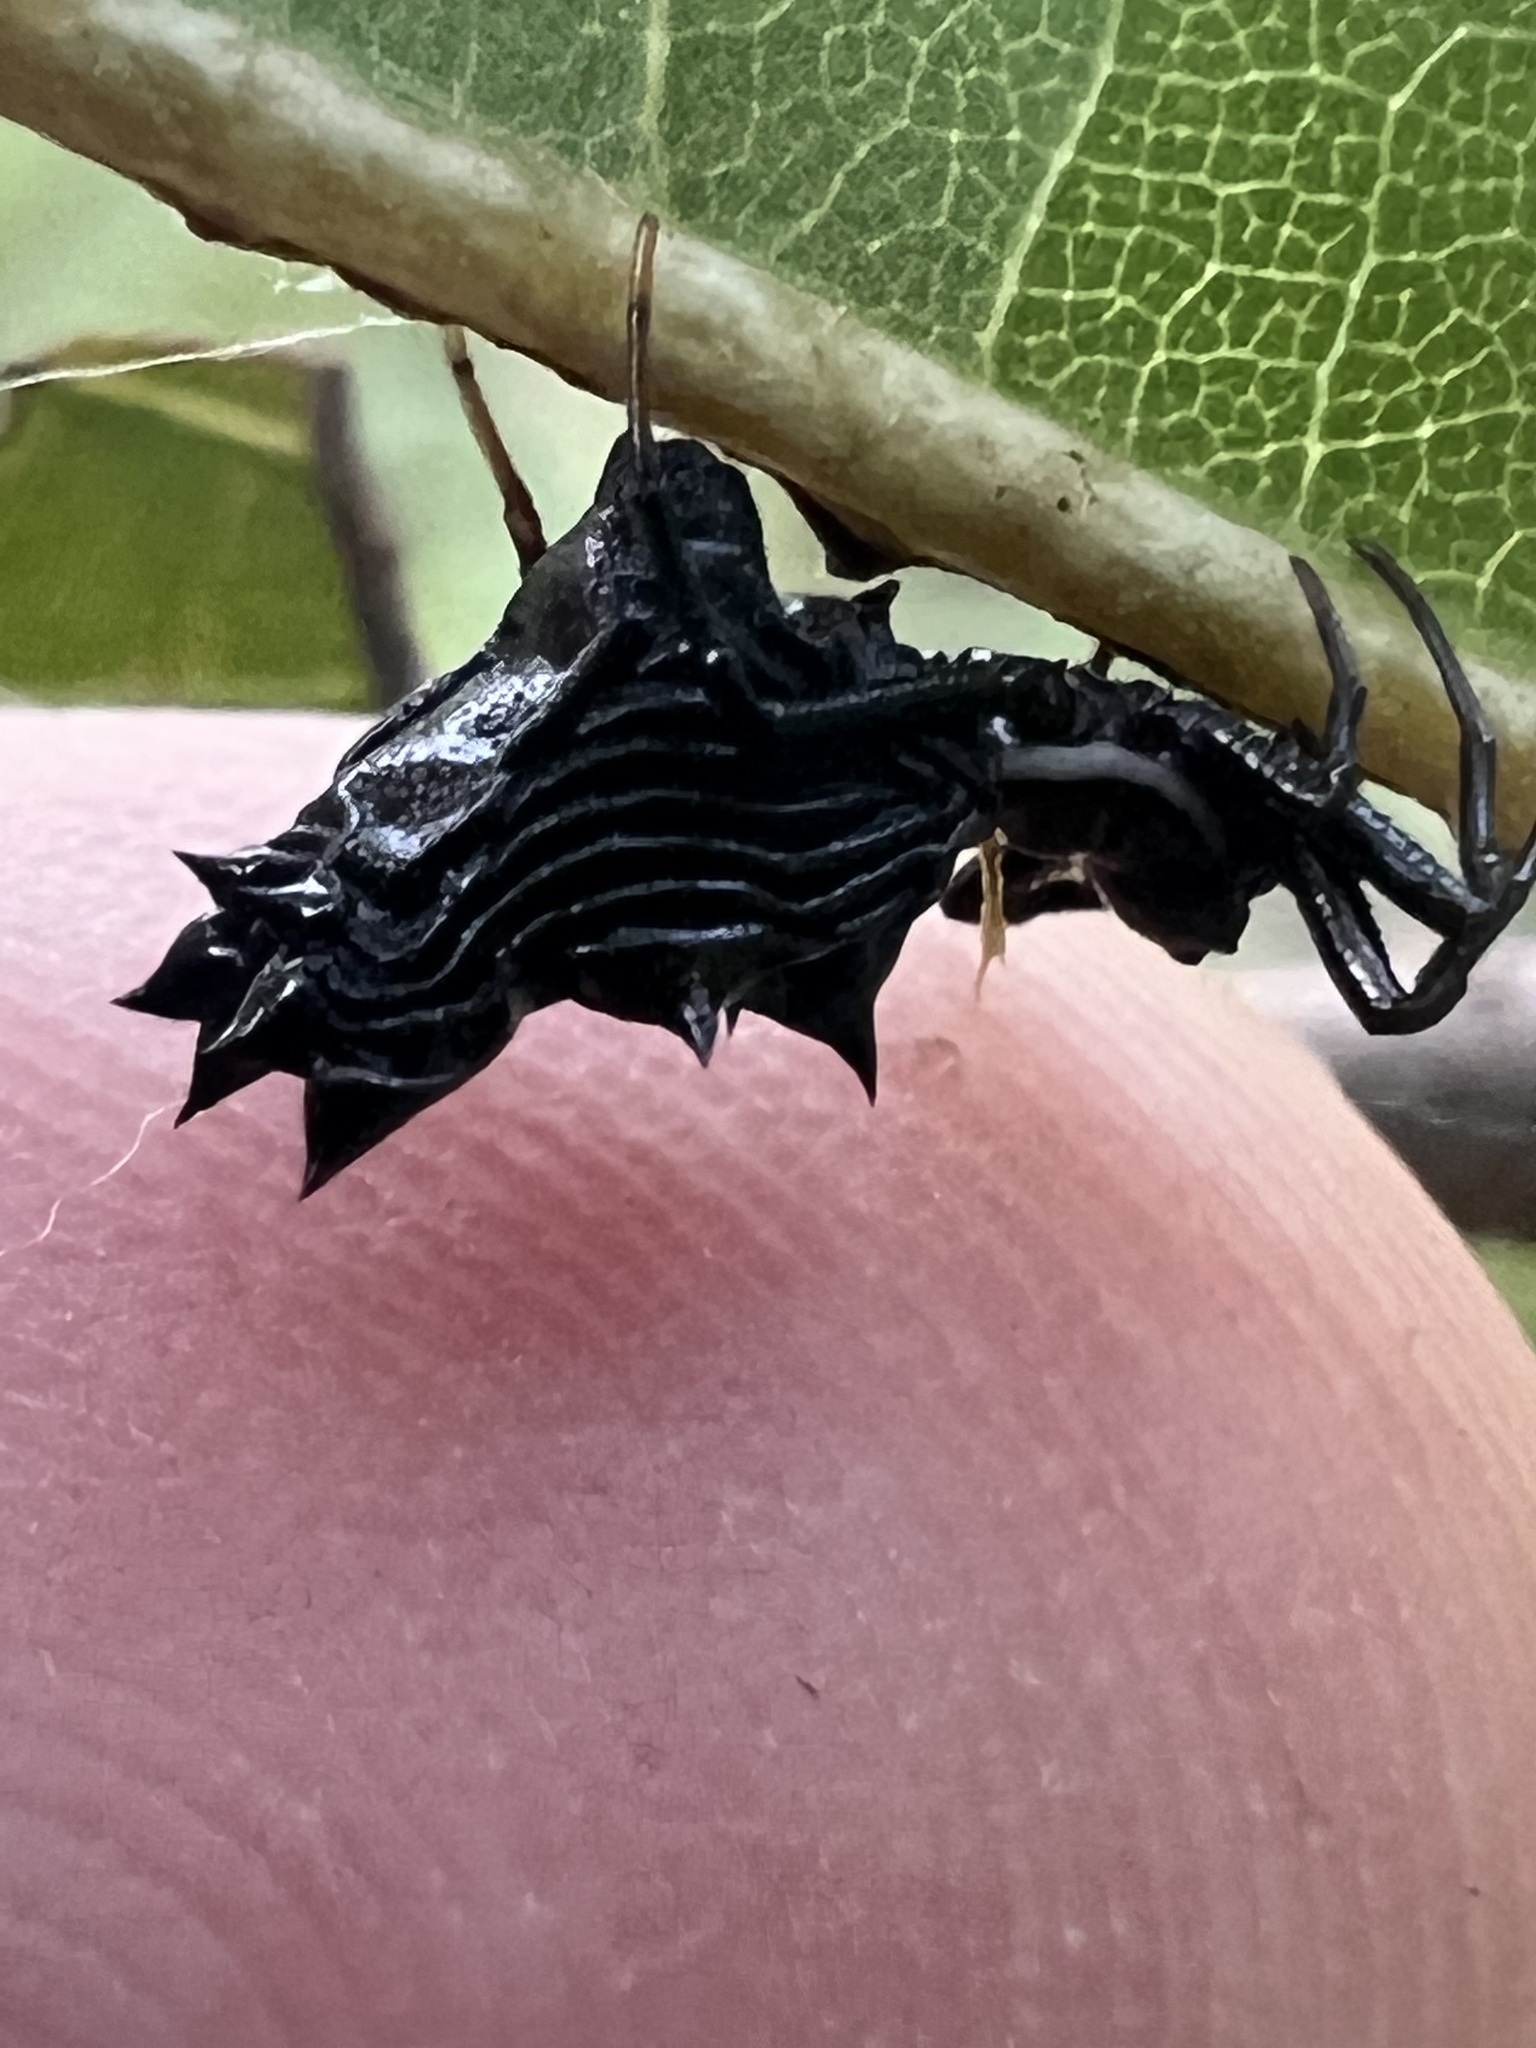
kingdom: Animalia
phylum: Arthropoda
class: Arachnida
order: Araneae
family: Araneidae
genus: Micrathena
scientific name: Micrathena gracilis
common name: Orb weavers
